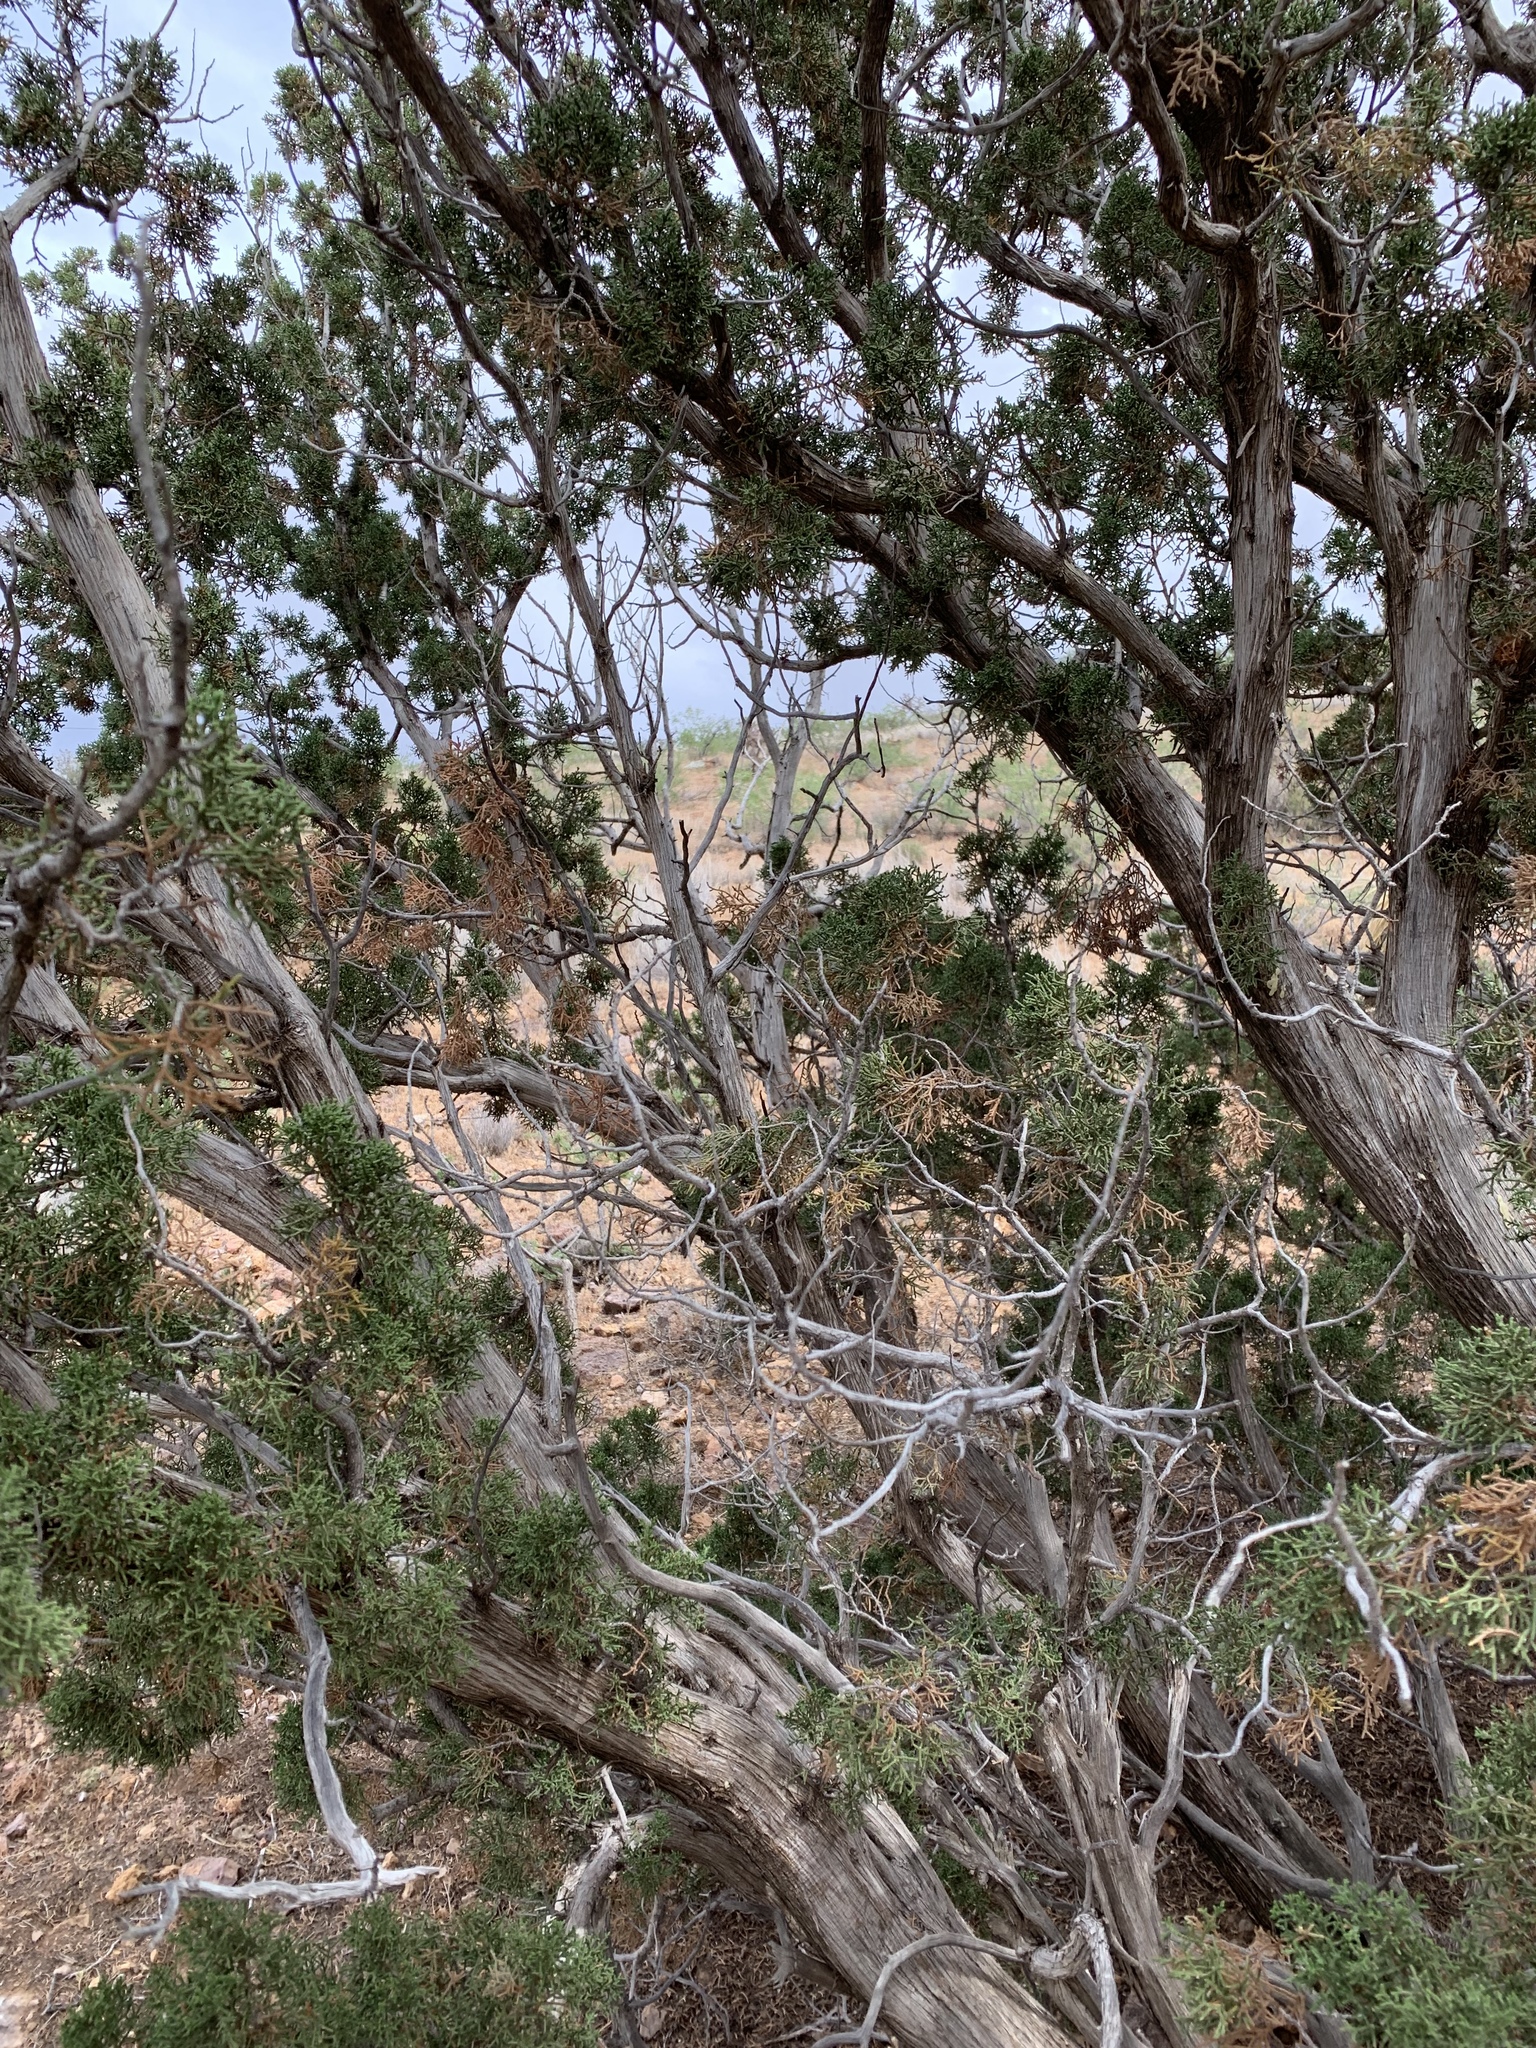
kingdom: Plantae
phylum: Tracheophyta
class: Pinopsida
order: Pinales
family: Cupressaceae
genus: Juniperus
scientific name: Juniperus monosperma
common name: One-seed juniper
